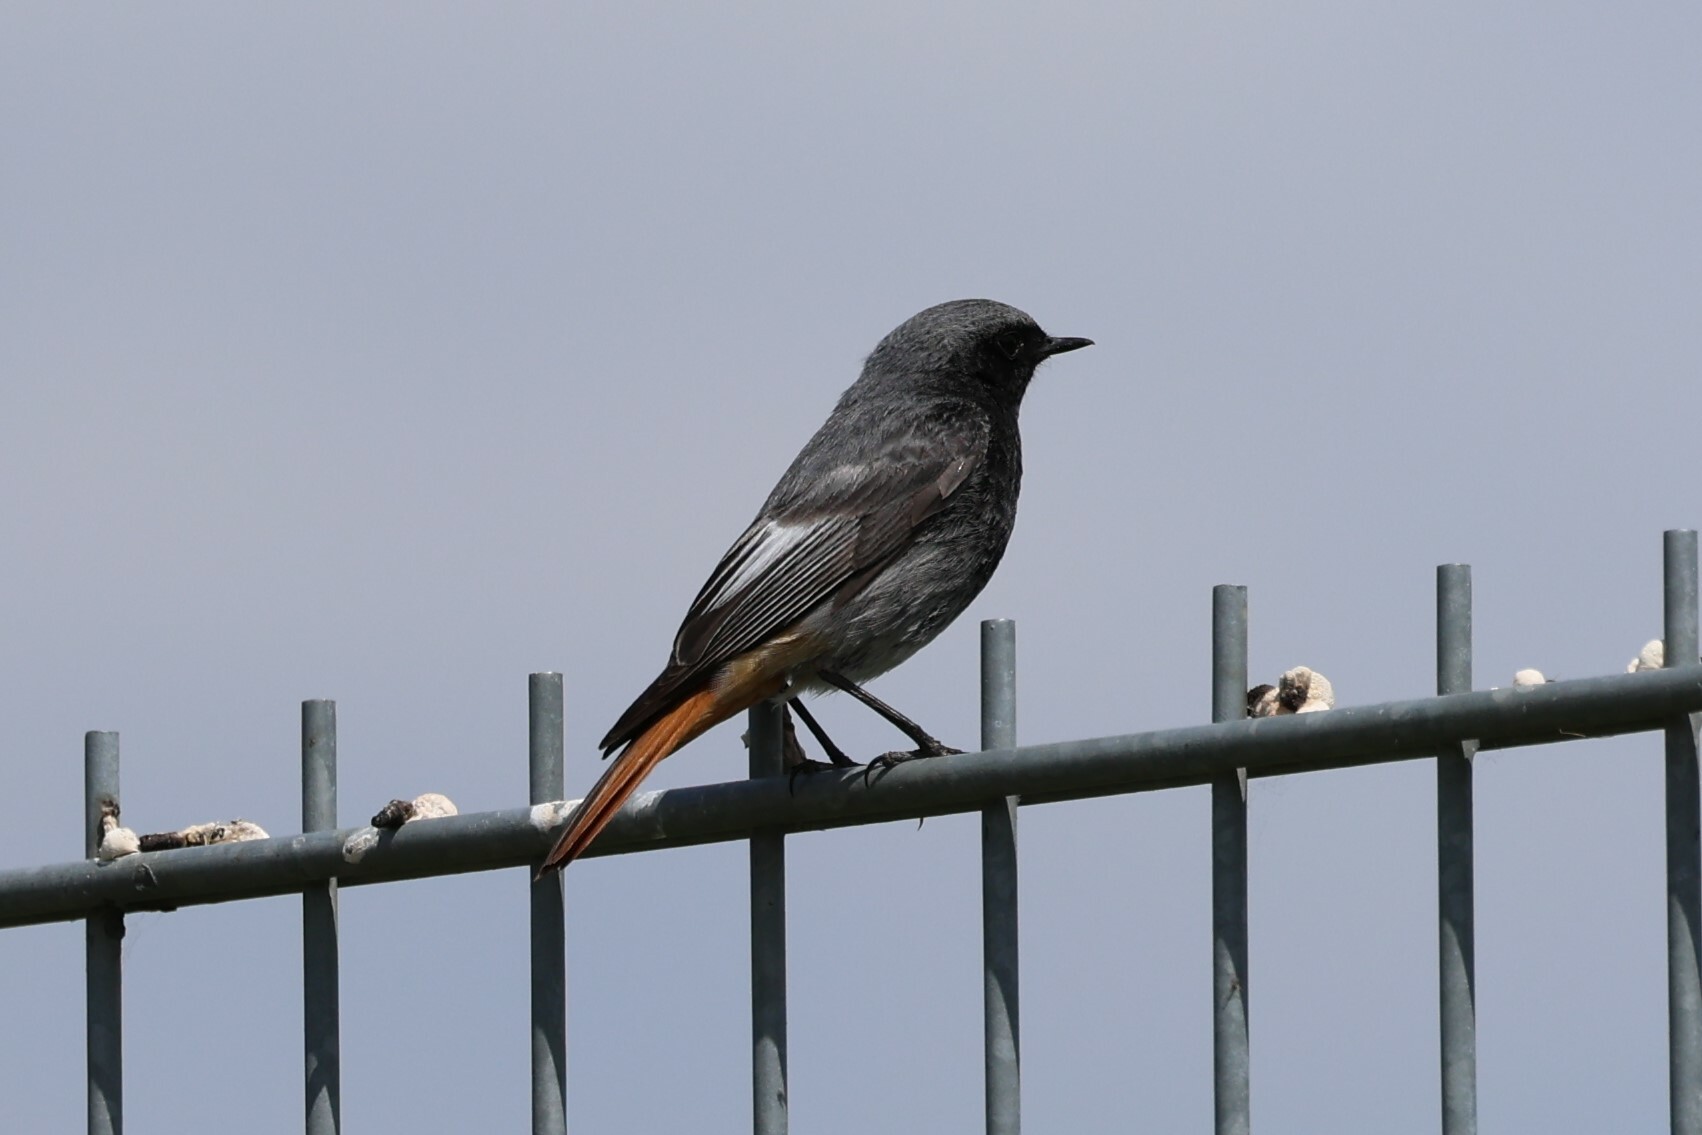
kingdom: Animalia
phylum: Chordata
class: Aves
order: Passeriformes
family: Muscicapidae
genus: Phoenicurus
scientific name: Phoenicurus ochruros
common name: Black redstart
